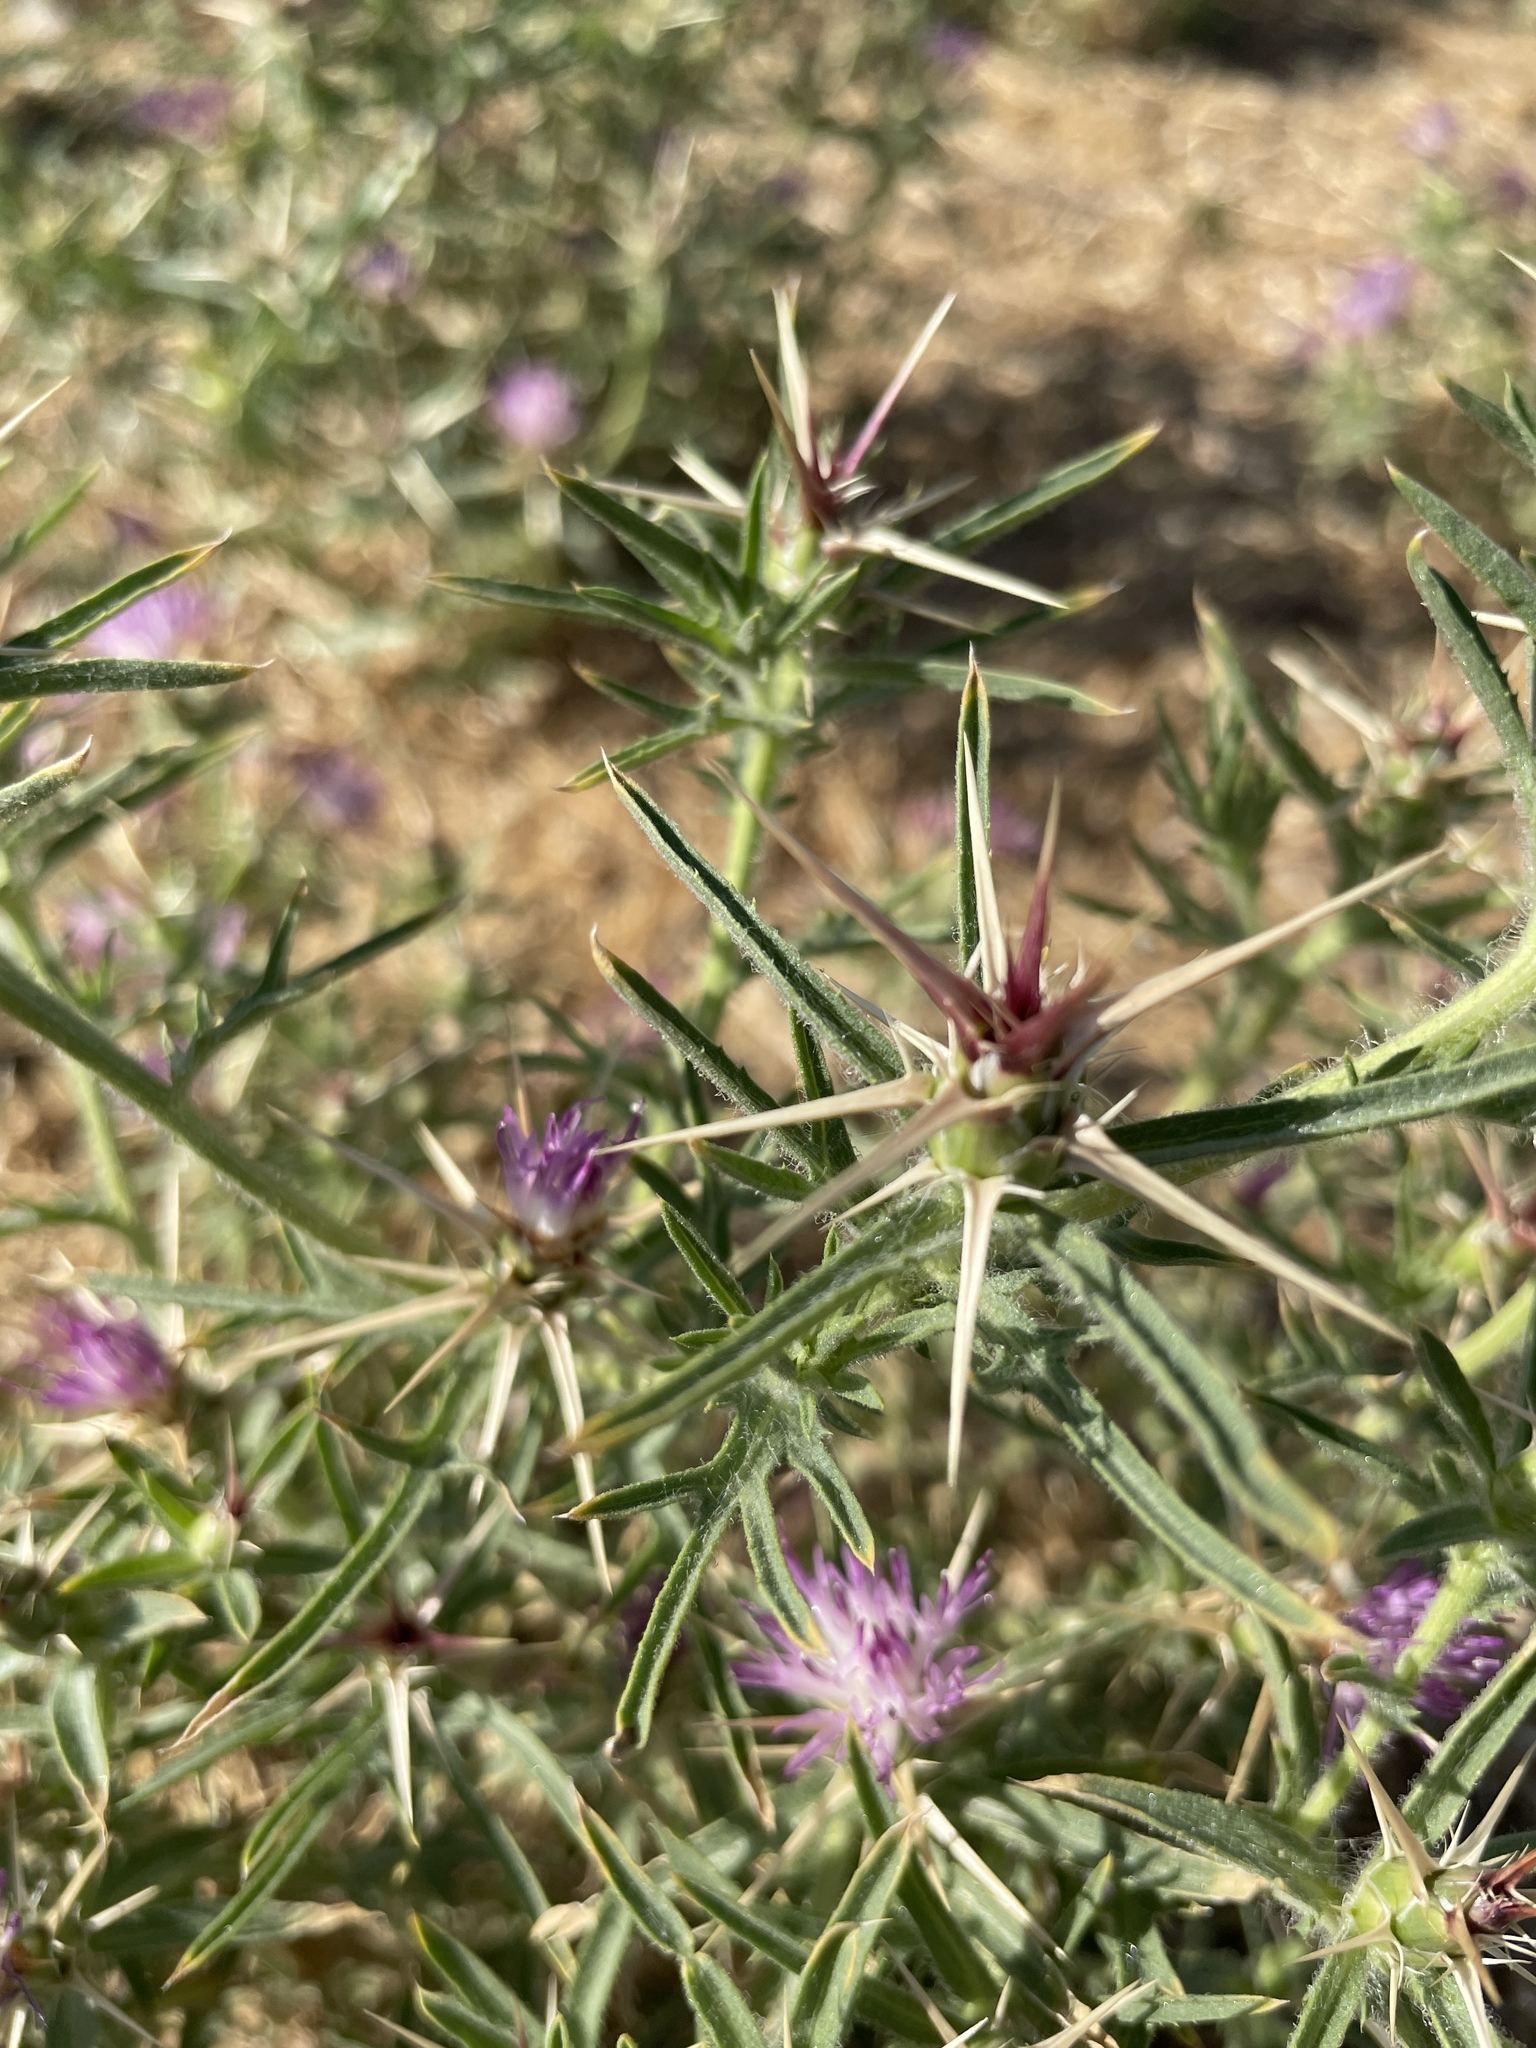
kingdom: Plantae
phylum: Tracheophyta
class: Magnoliopsida
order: Asterales
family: Asteraceae
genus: Centaurea
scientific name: Centaurea calcitrapa
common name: Red star-thistle
